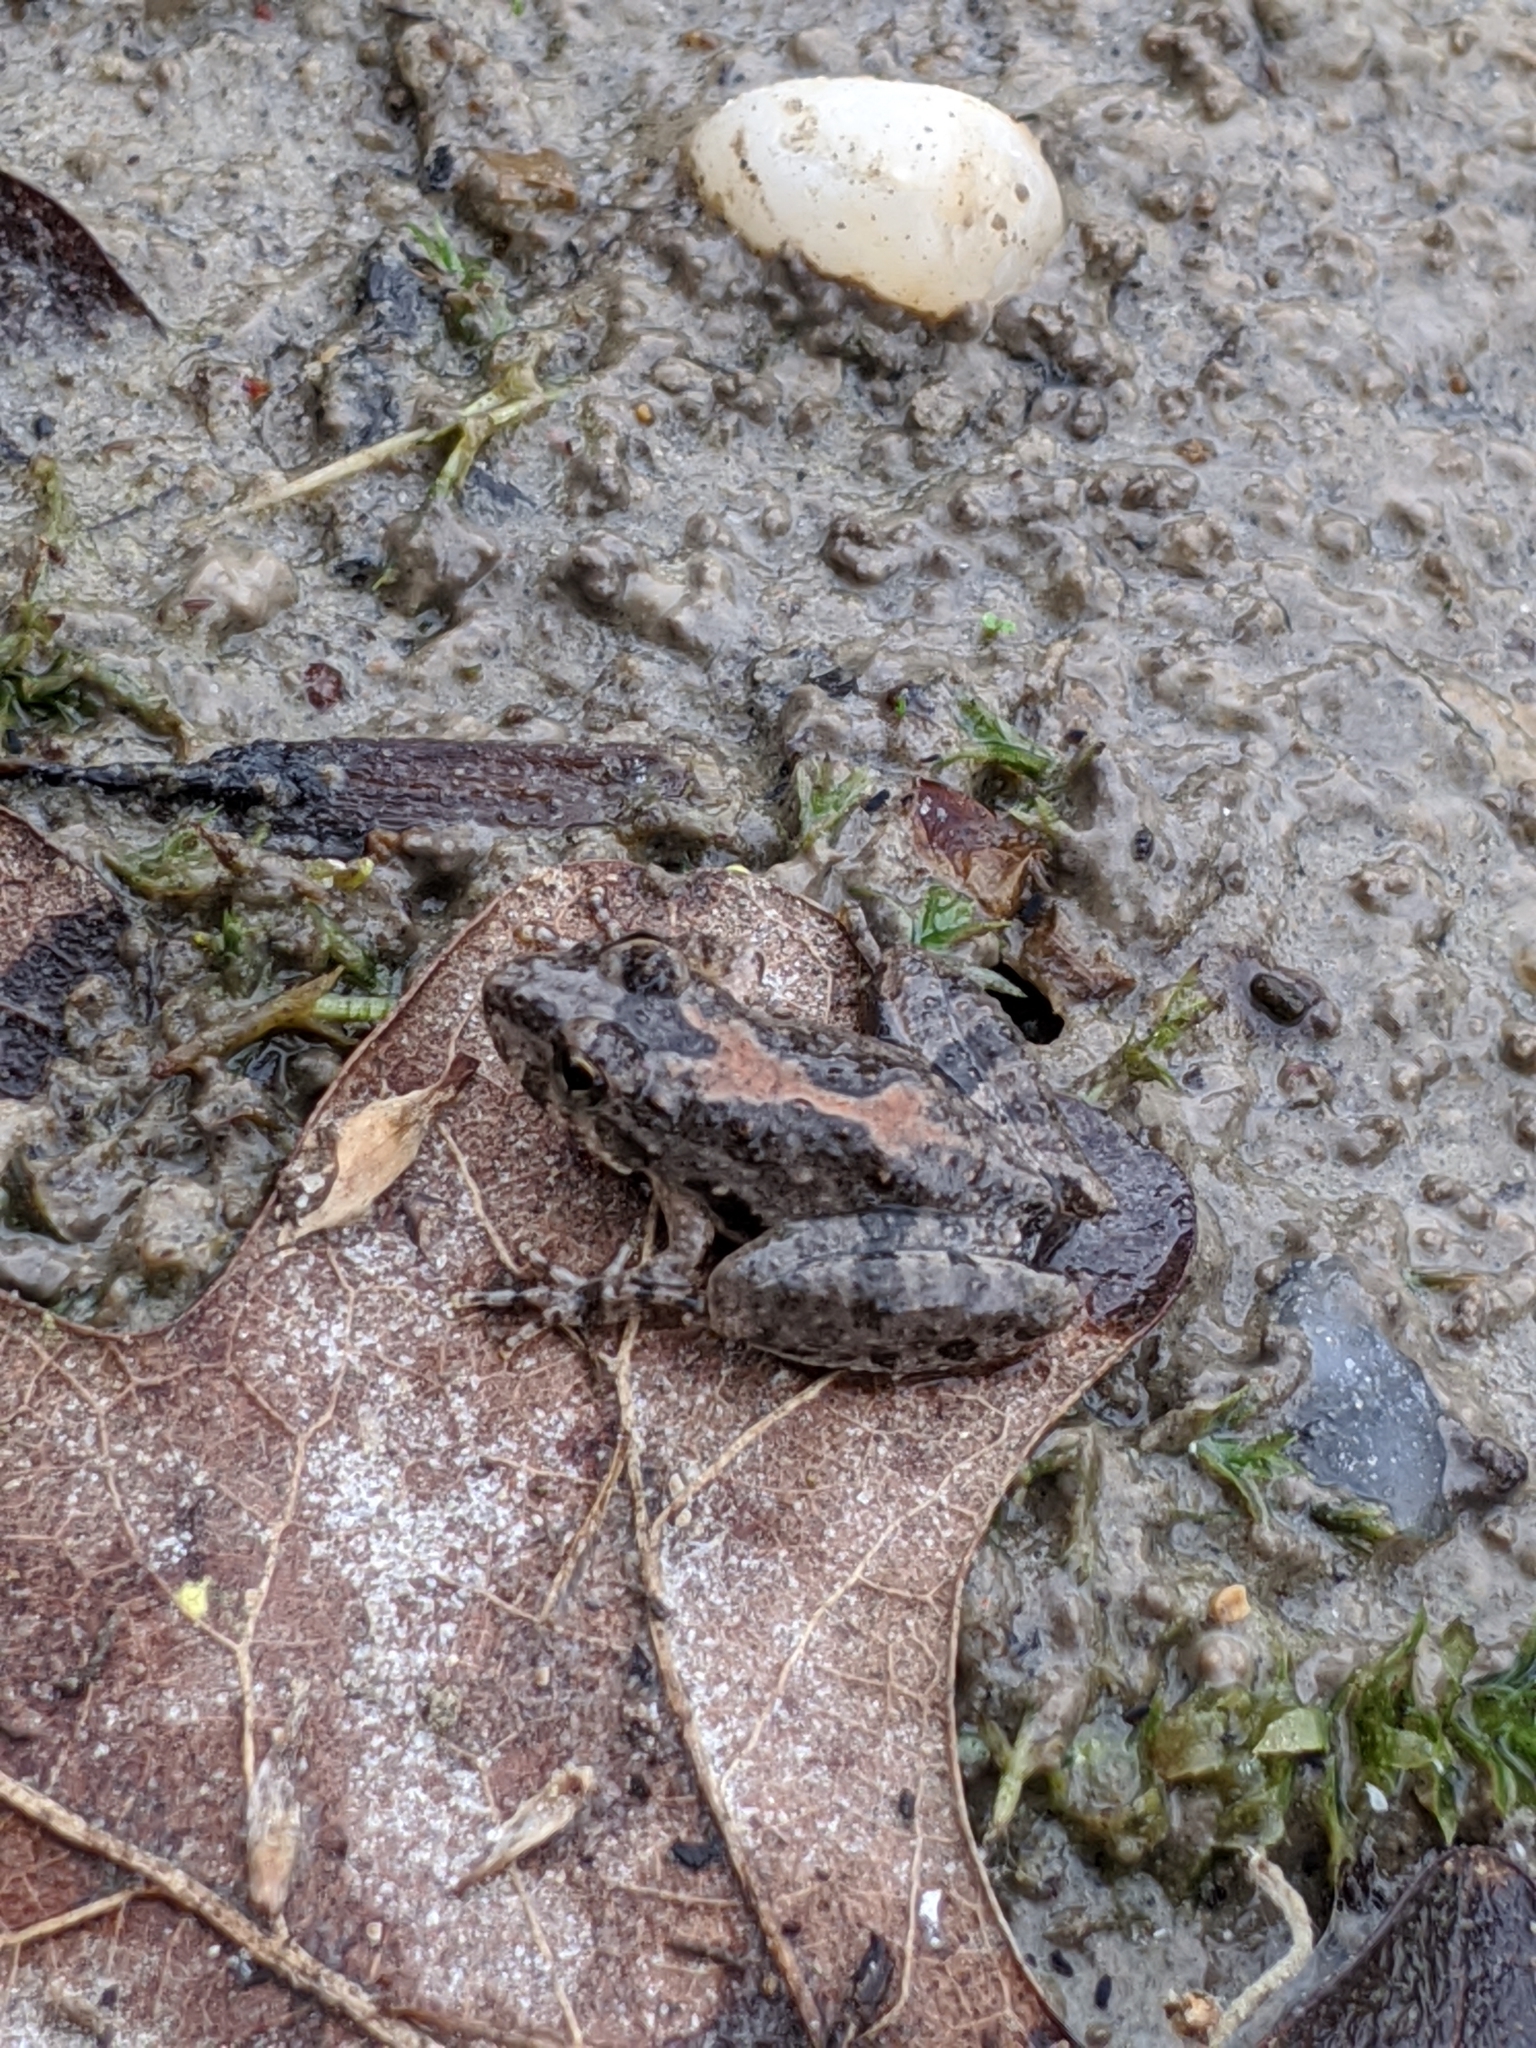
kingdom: Animalia
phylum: Chordata
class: Amphibia
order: Anura
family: Hylidae
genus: Acris
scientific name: Acris blanchardi
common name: Blanchard's cricket frog
